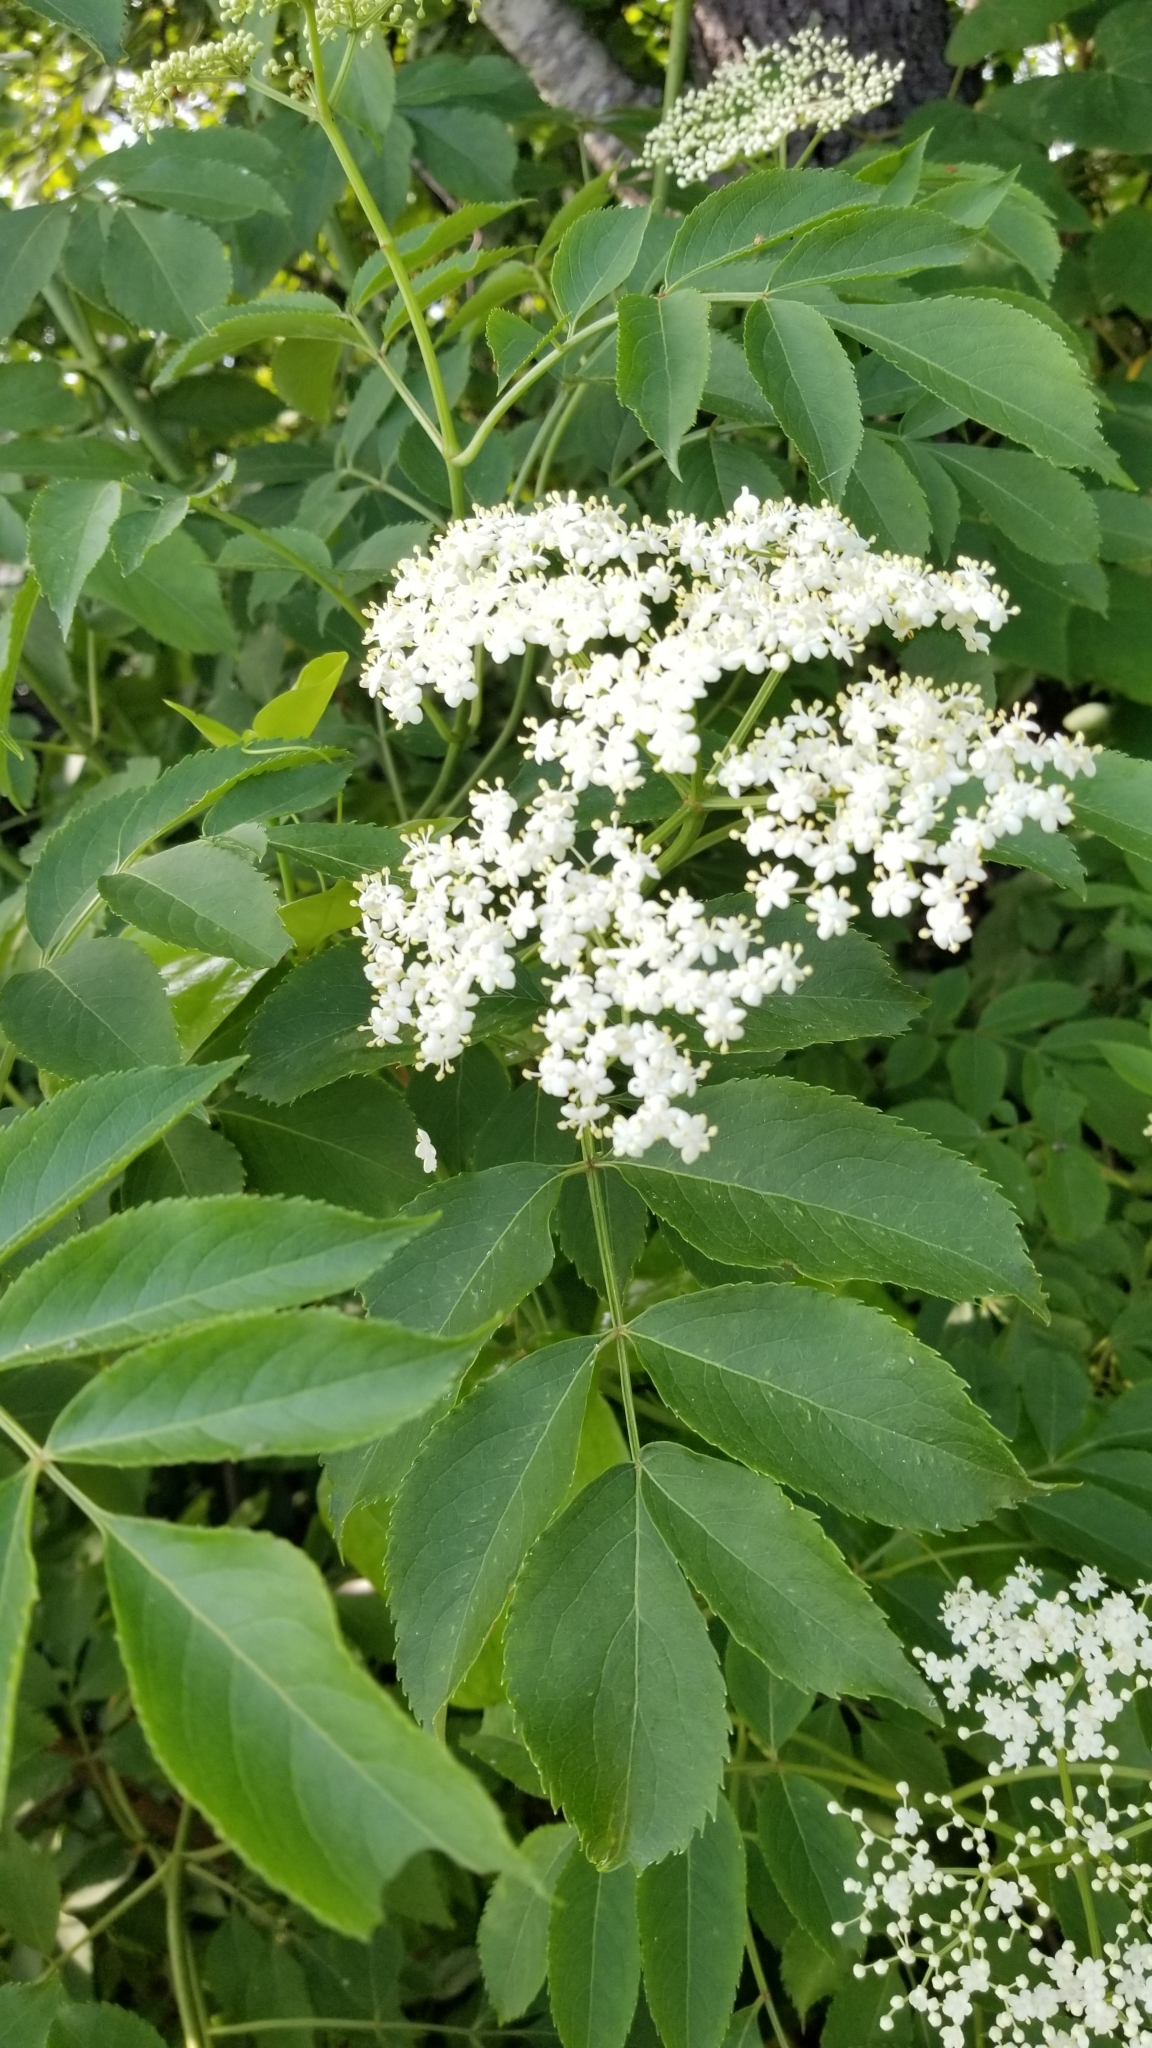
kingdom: Plantae
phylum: Tracheophyta
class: Magnoliopsida
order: Dipsacales
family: Viburnaceae
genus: Sambucus
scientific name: Sambucus canadensis
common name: American elder
